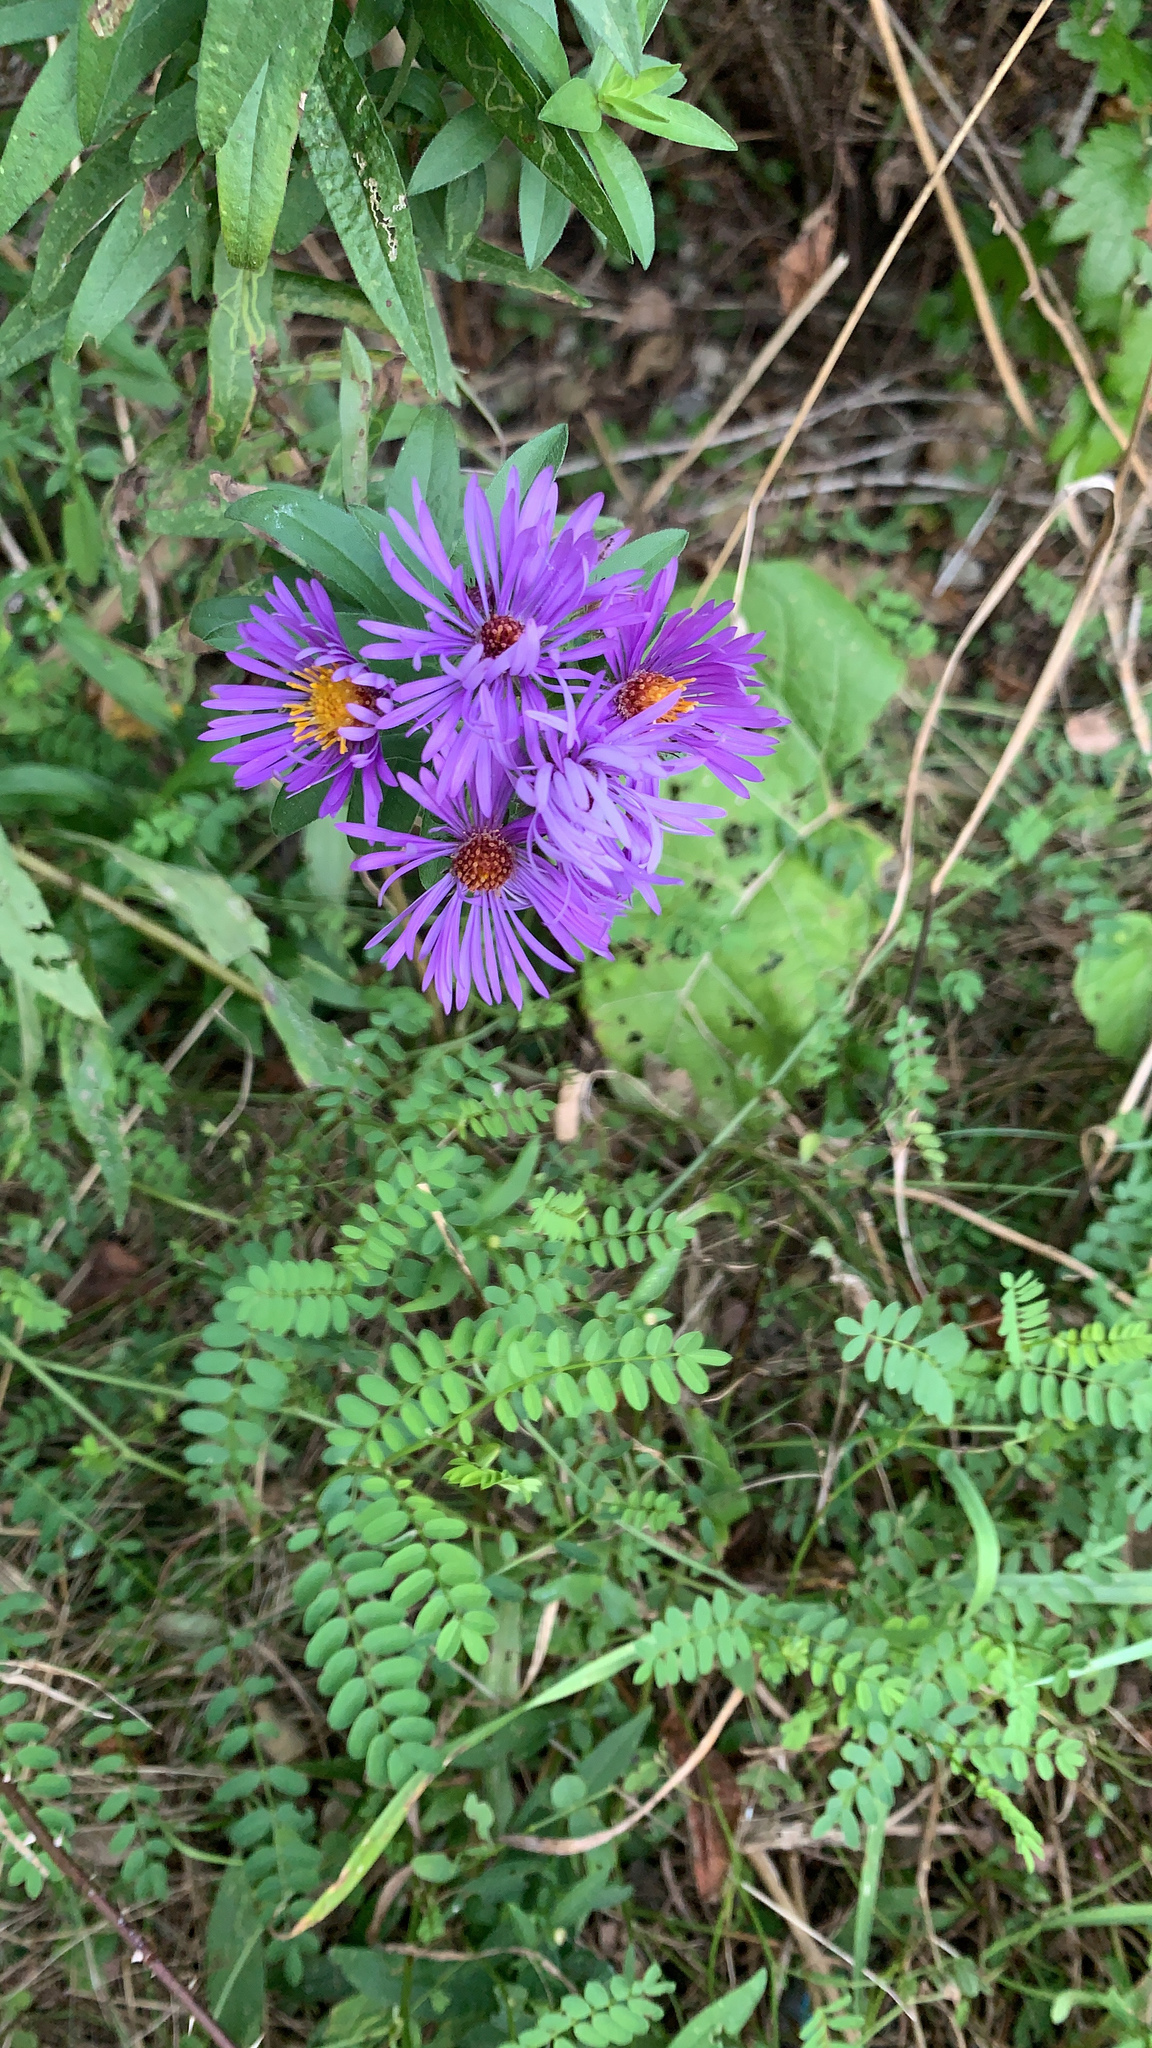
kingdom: Plantae
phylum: Tracheophyta
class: Magnoliopsida
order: Asterales
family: Asteraceae
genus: Symphyotrichum
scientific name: Symphyotrichum novae-angliae
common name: Michaelmas daisy
